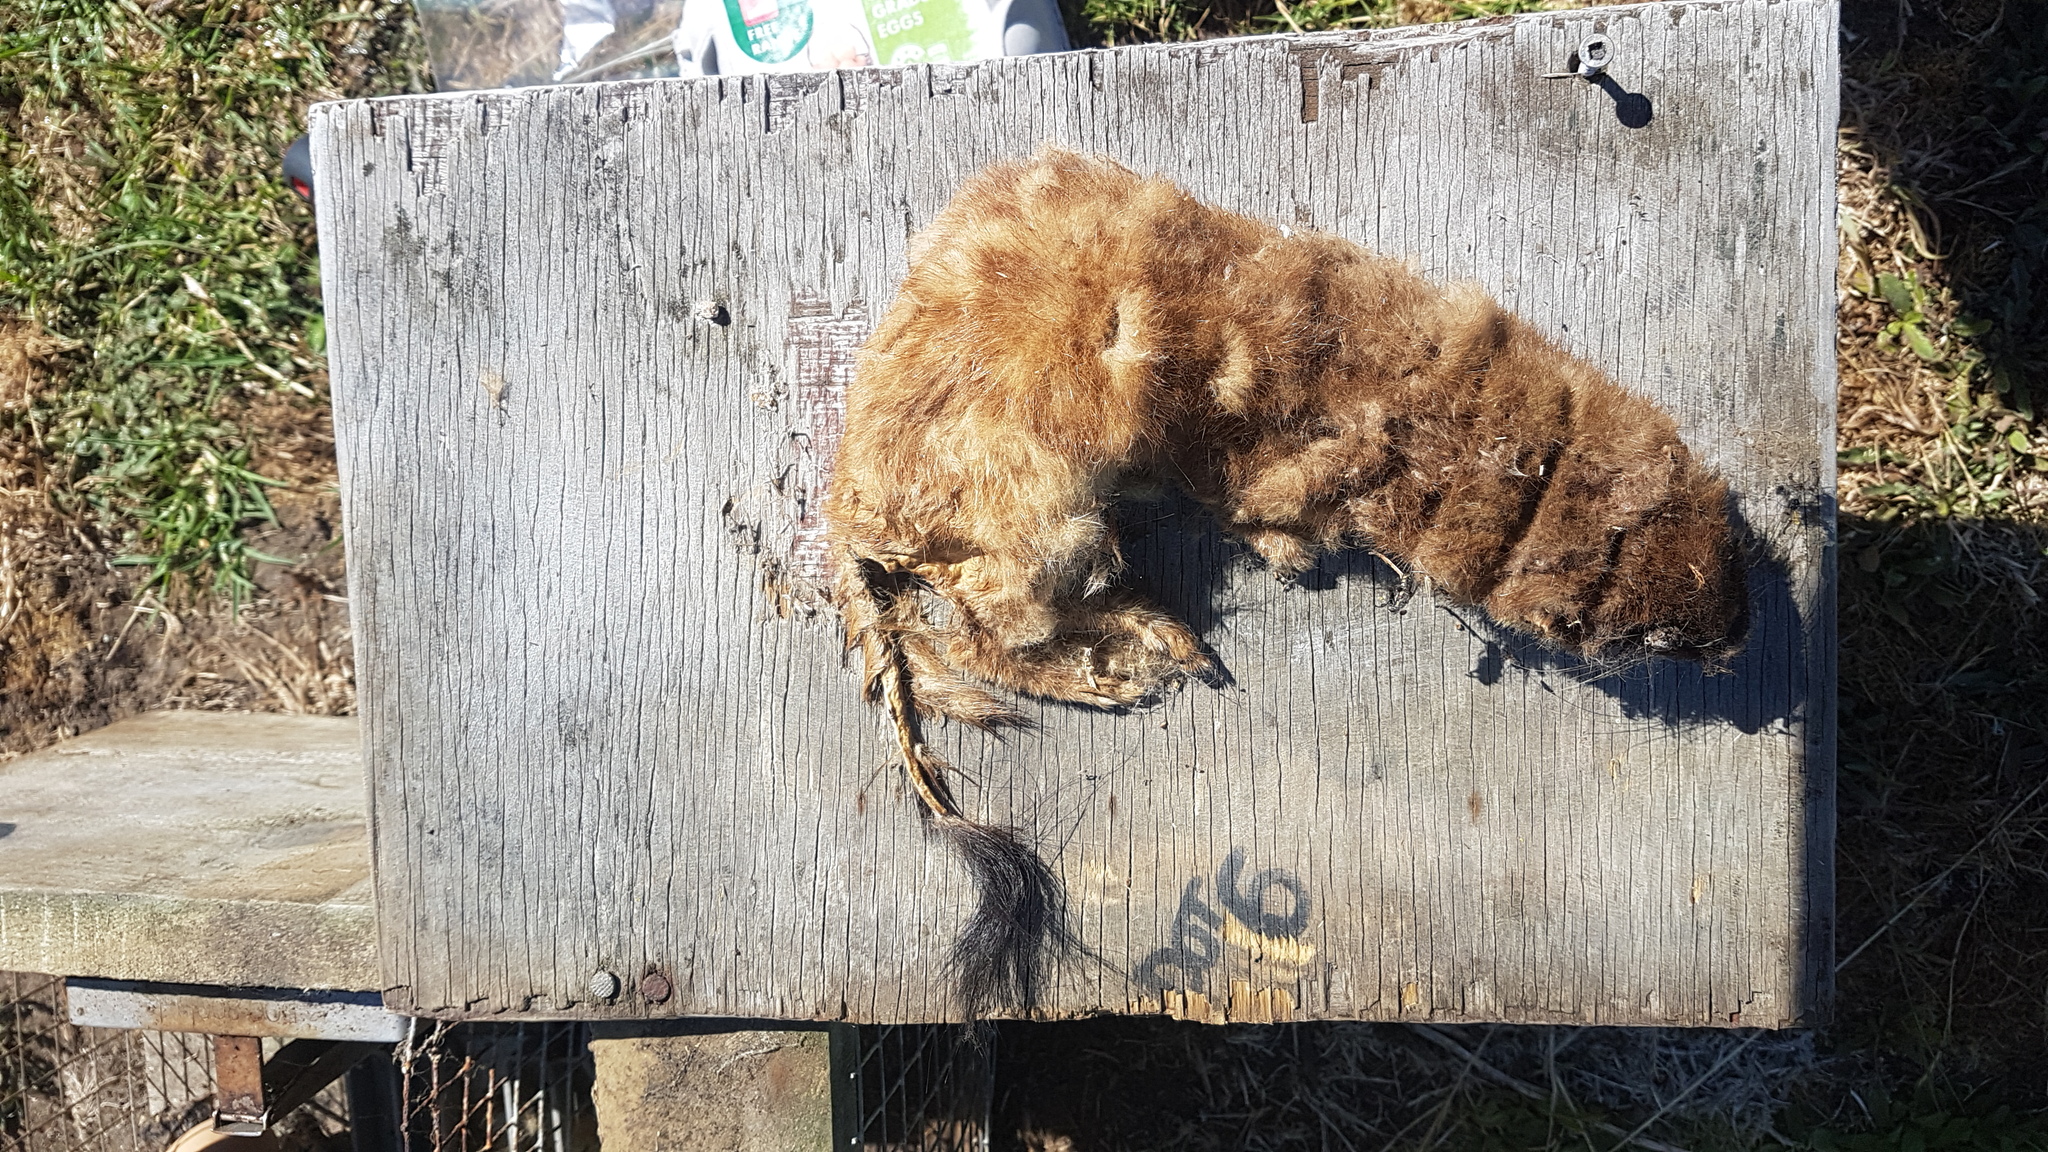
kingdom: Animalia
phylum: Chordata
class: Mammalia
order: Carnivora
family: Mustelidae
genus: Mustela
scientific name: Mustela erminea
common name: Stoat
